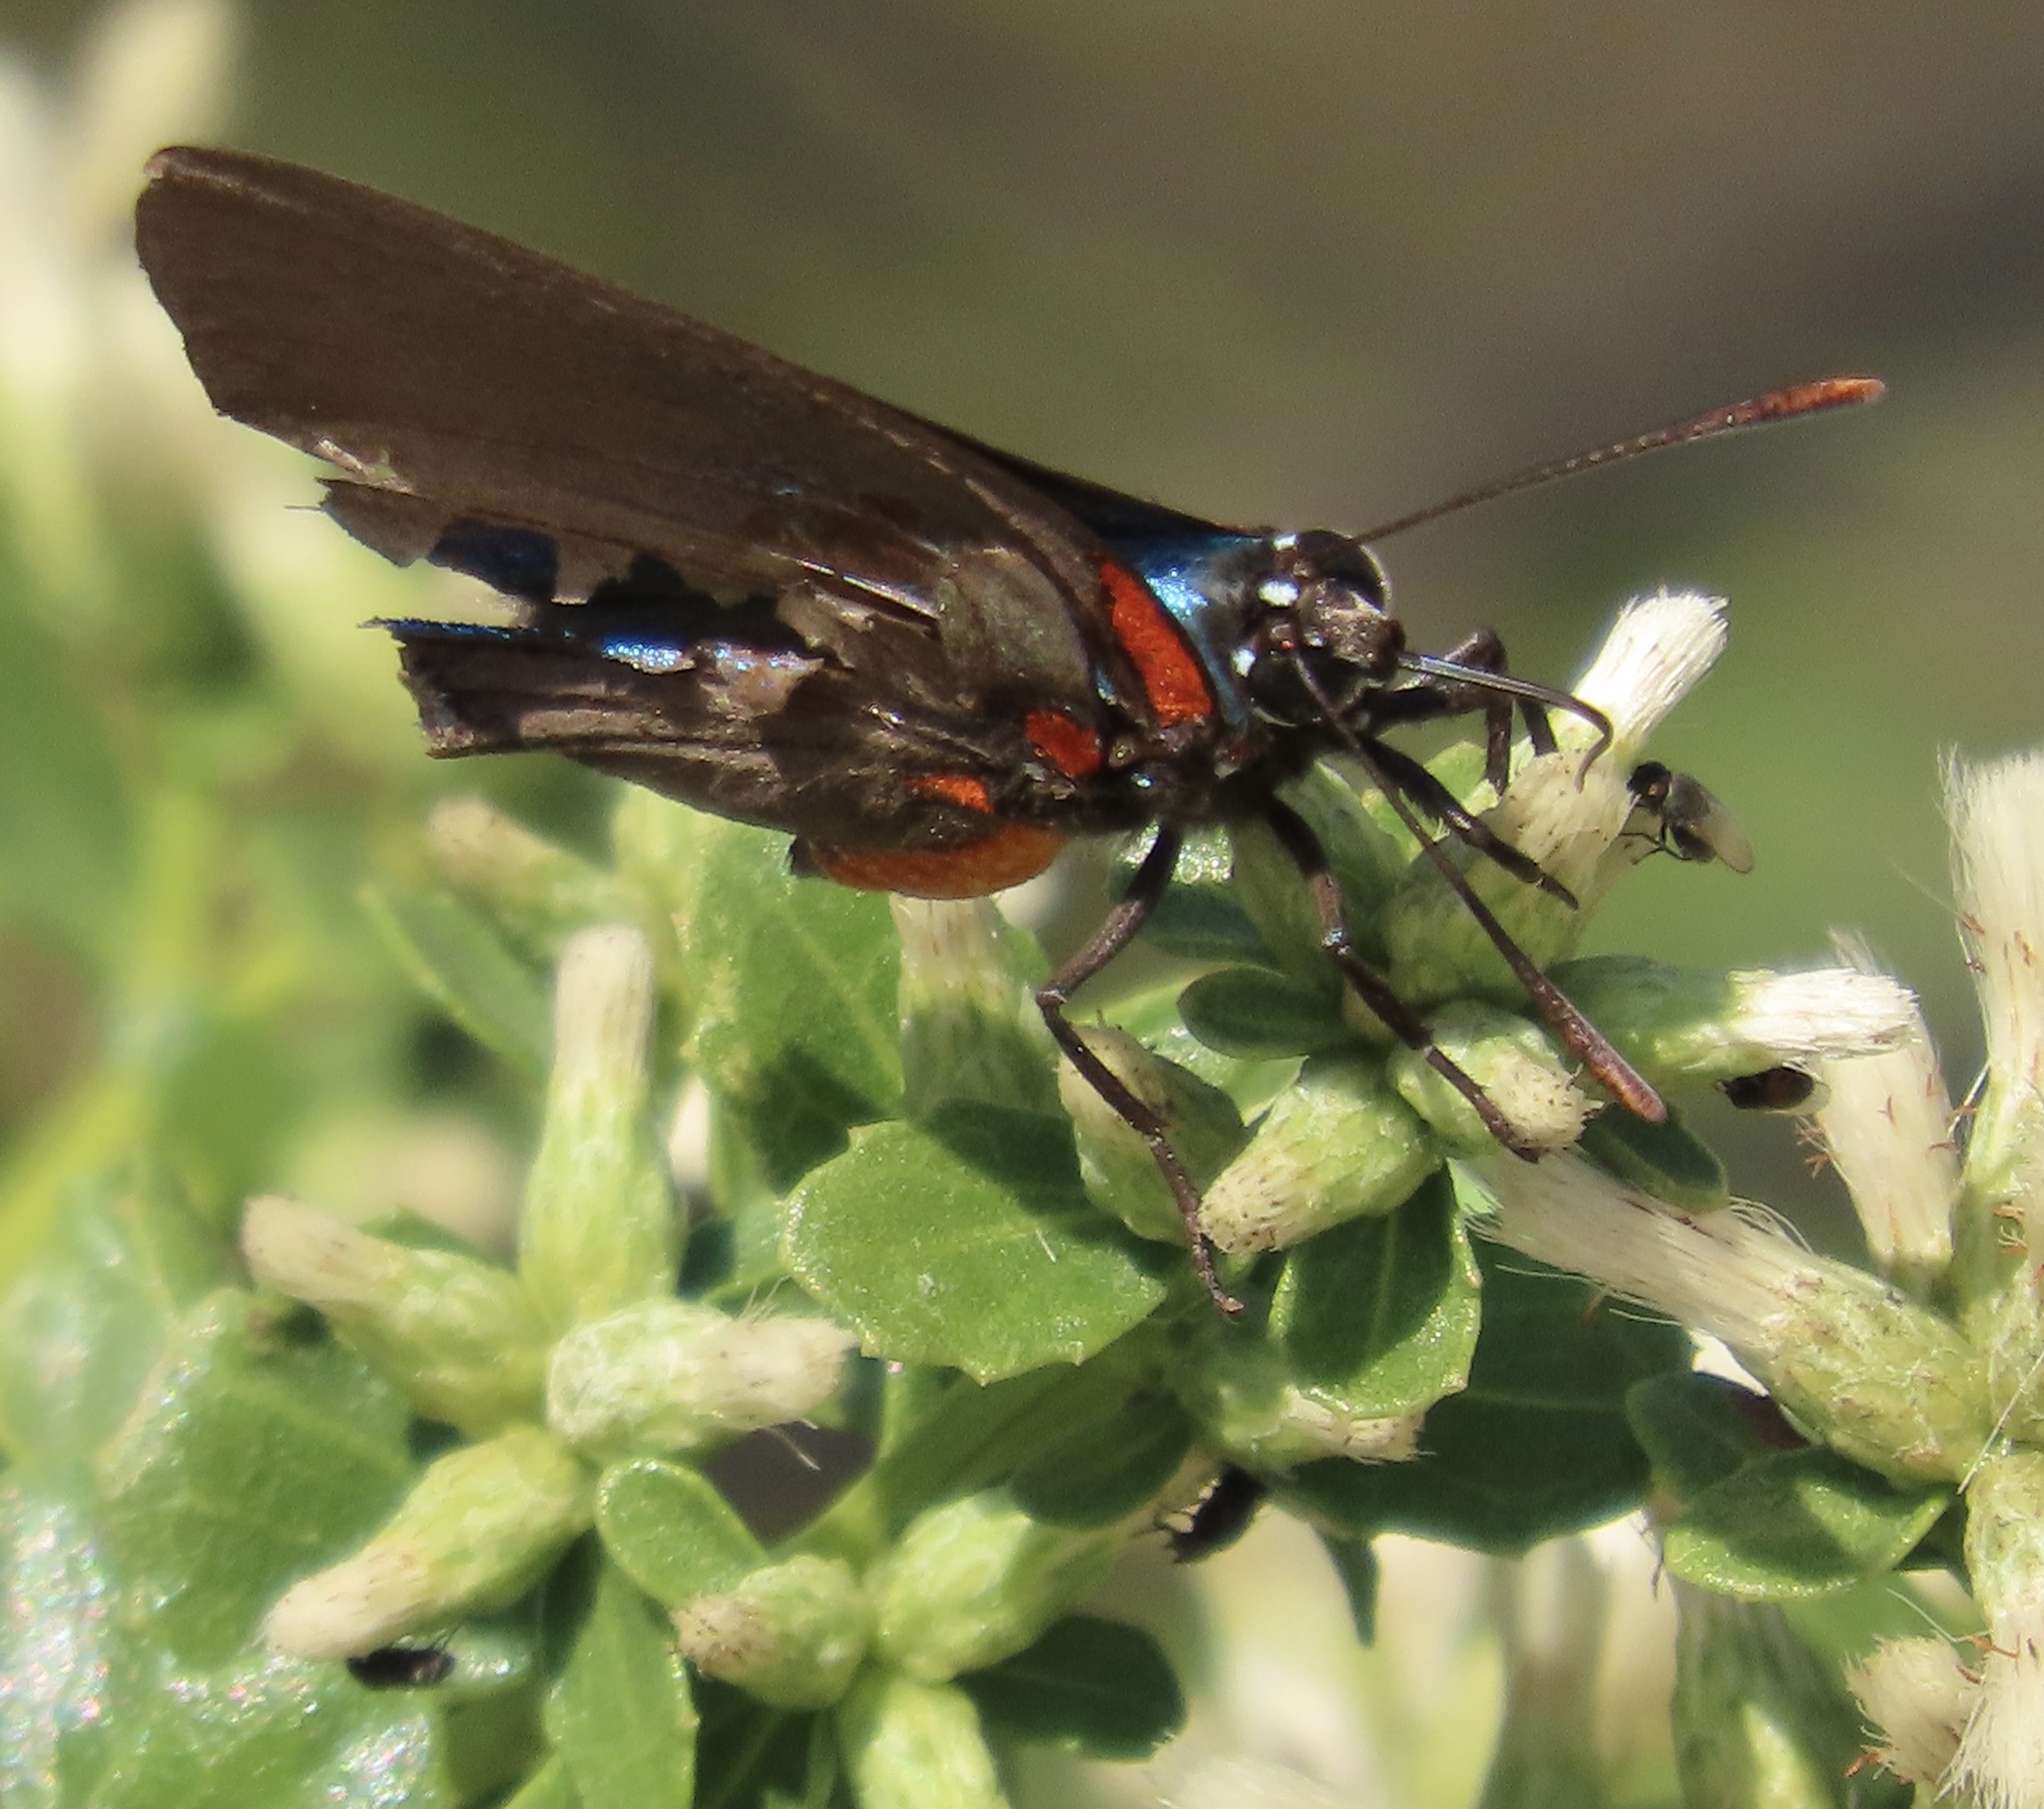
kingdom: Animalia
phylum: Arthropoda
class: Insecta
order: Lepidoptera
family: Lycaenidae
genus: Atlides
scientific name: Atlides halesus
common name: Great purple hairstreak
